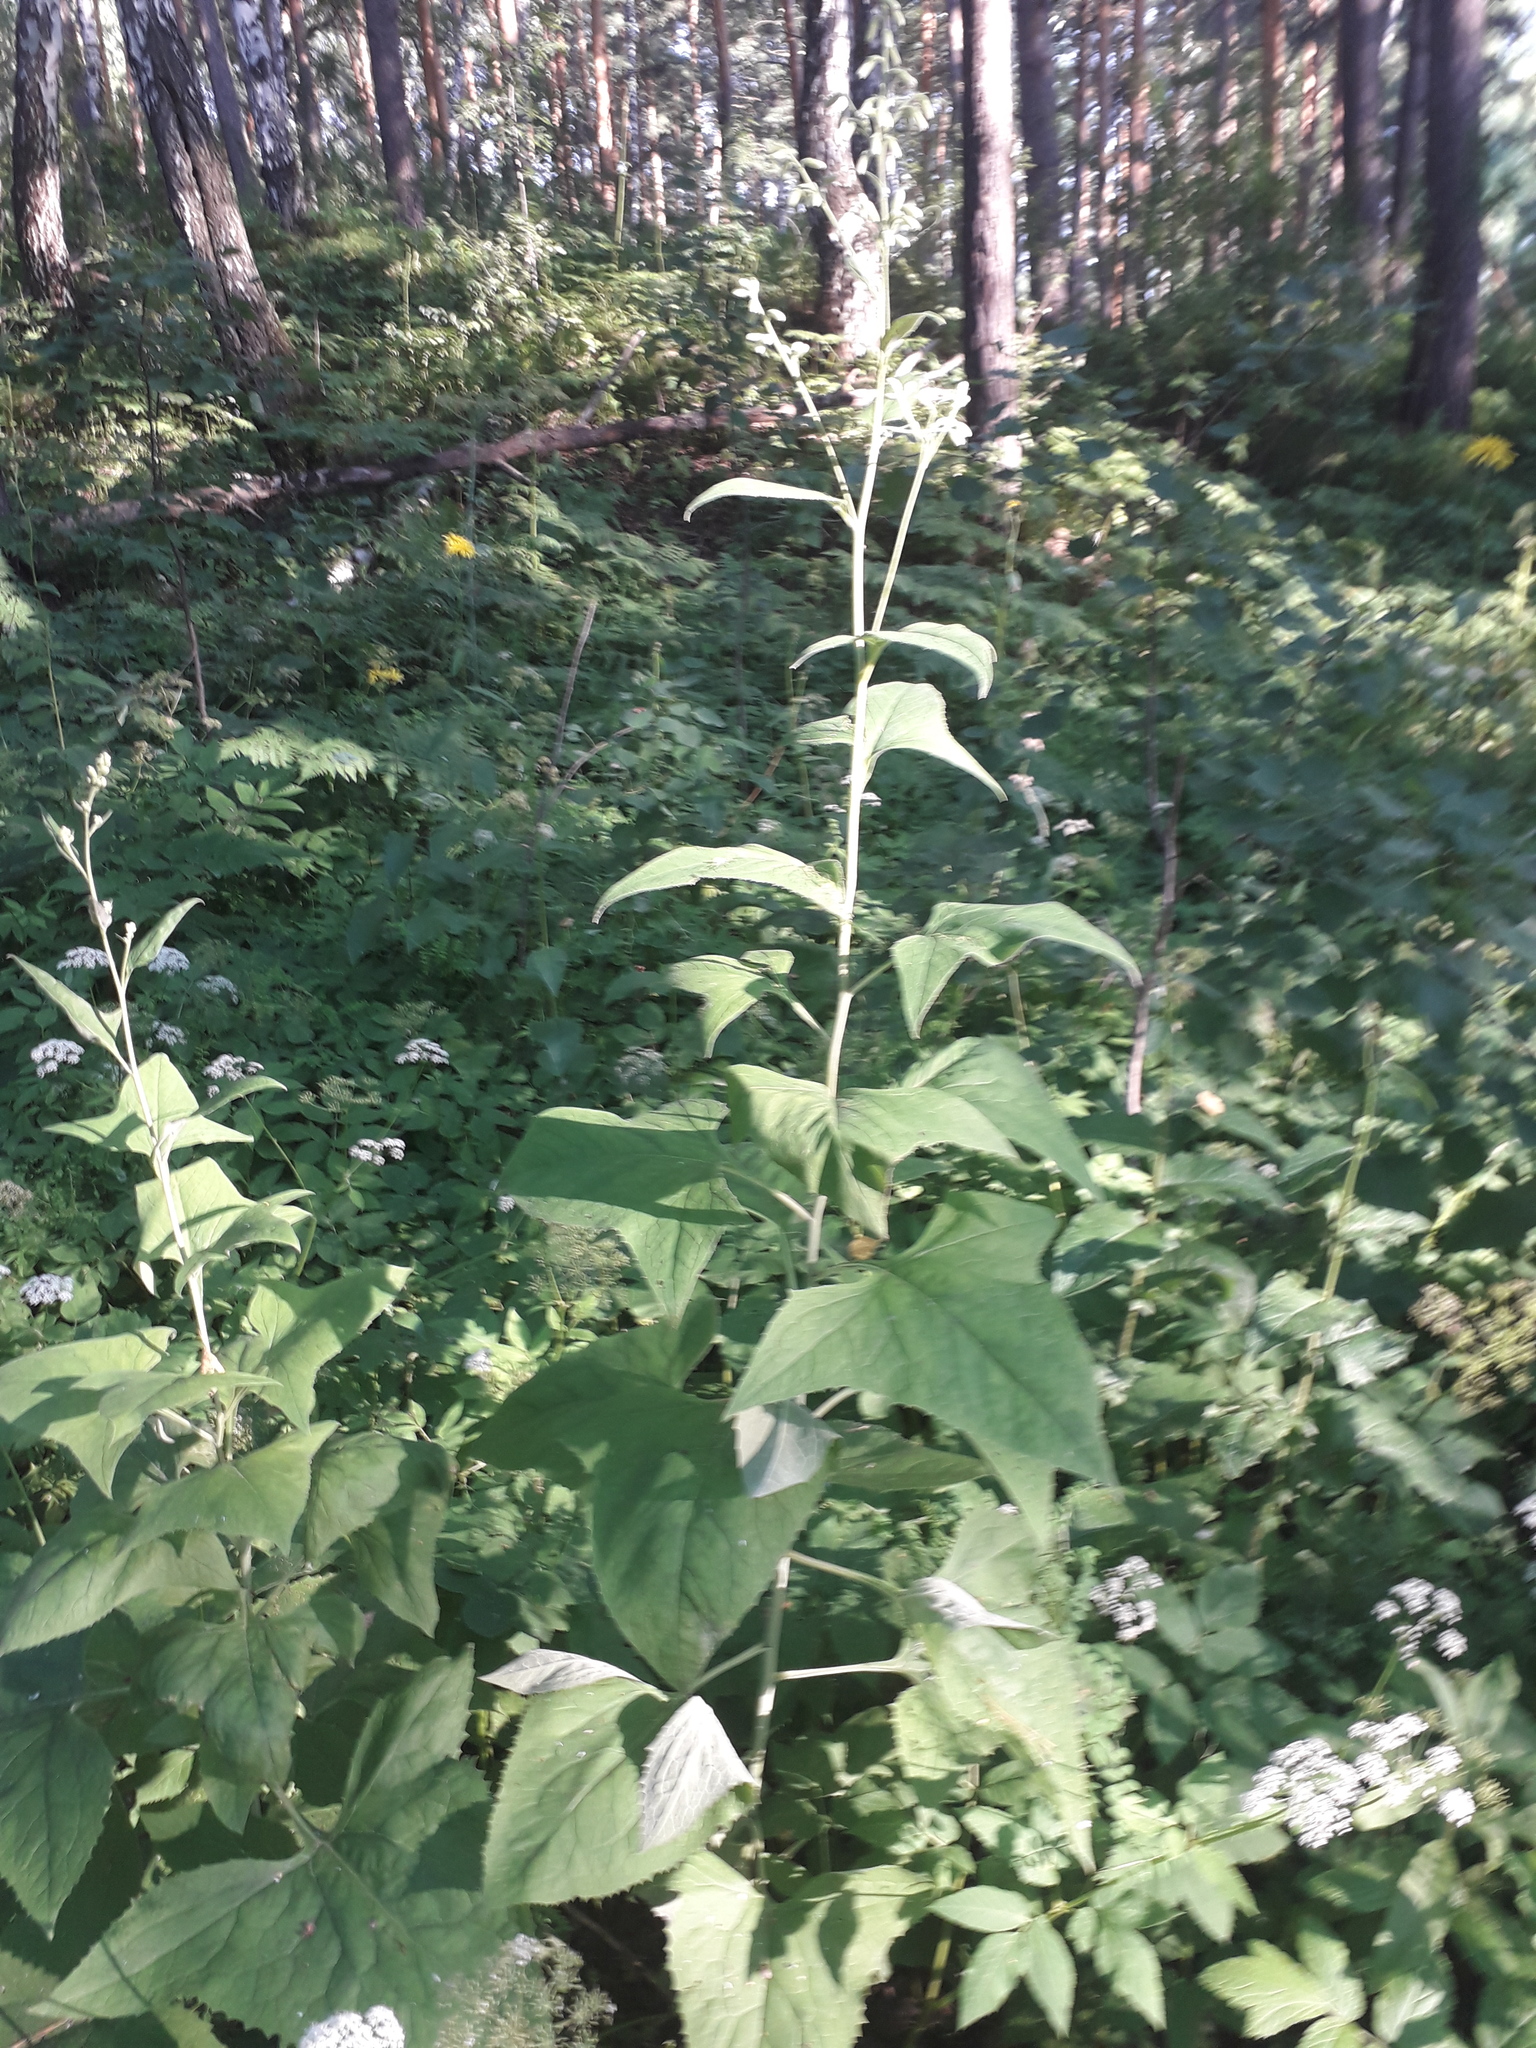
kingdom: Plantae
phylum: Tracheophyta
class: Magnoliopsida
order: Asterales
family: Asteraceae
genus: Parasenecio
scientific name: Parasenecio hastatus
